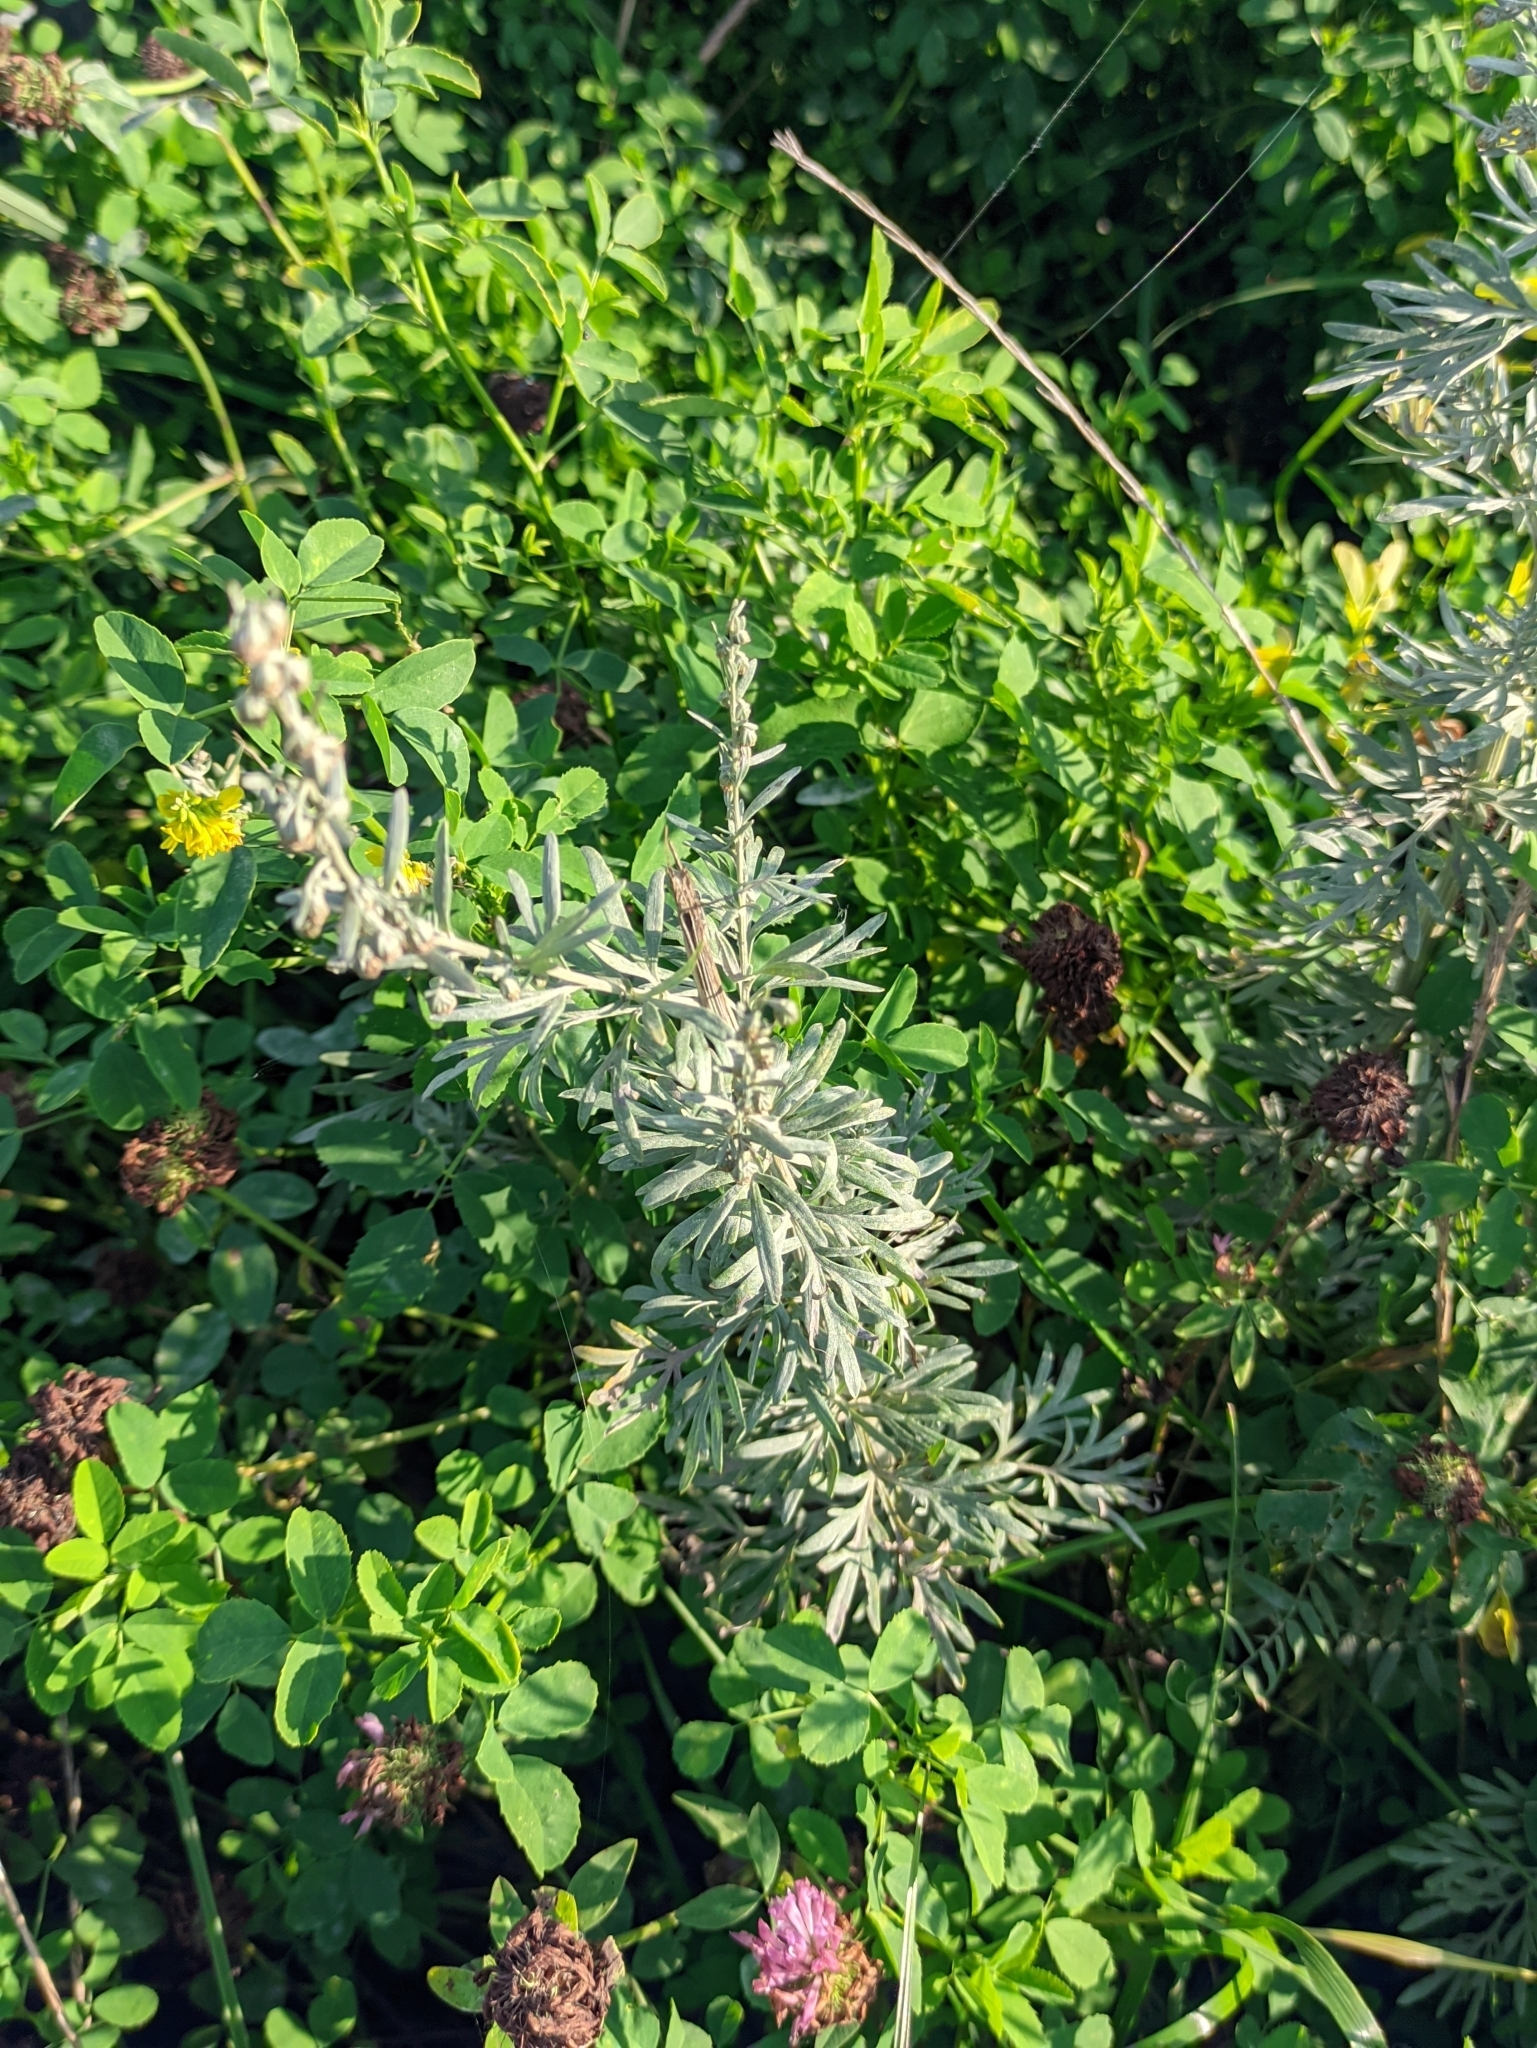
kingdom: Plantae
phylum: Tracheophyta
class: Magnoliopsida
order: Asterales
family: Asteraceae
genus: Artemisia
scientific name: Artemisia absinthium
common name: Wormwood
